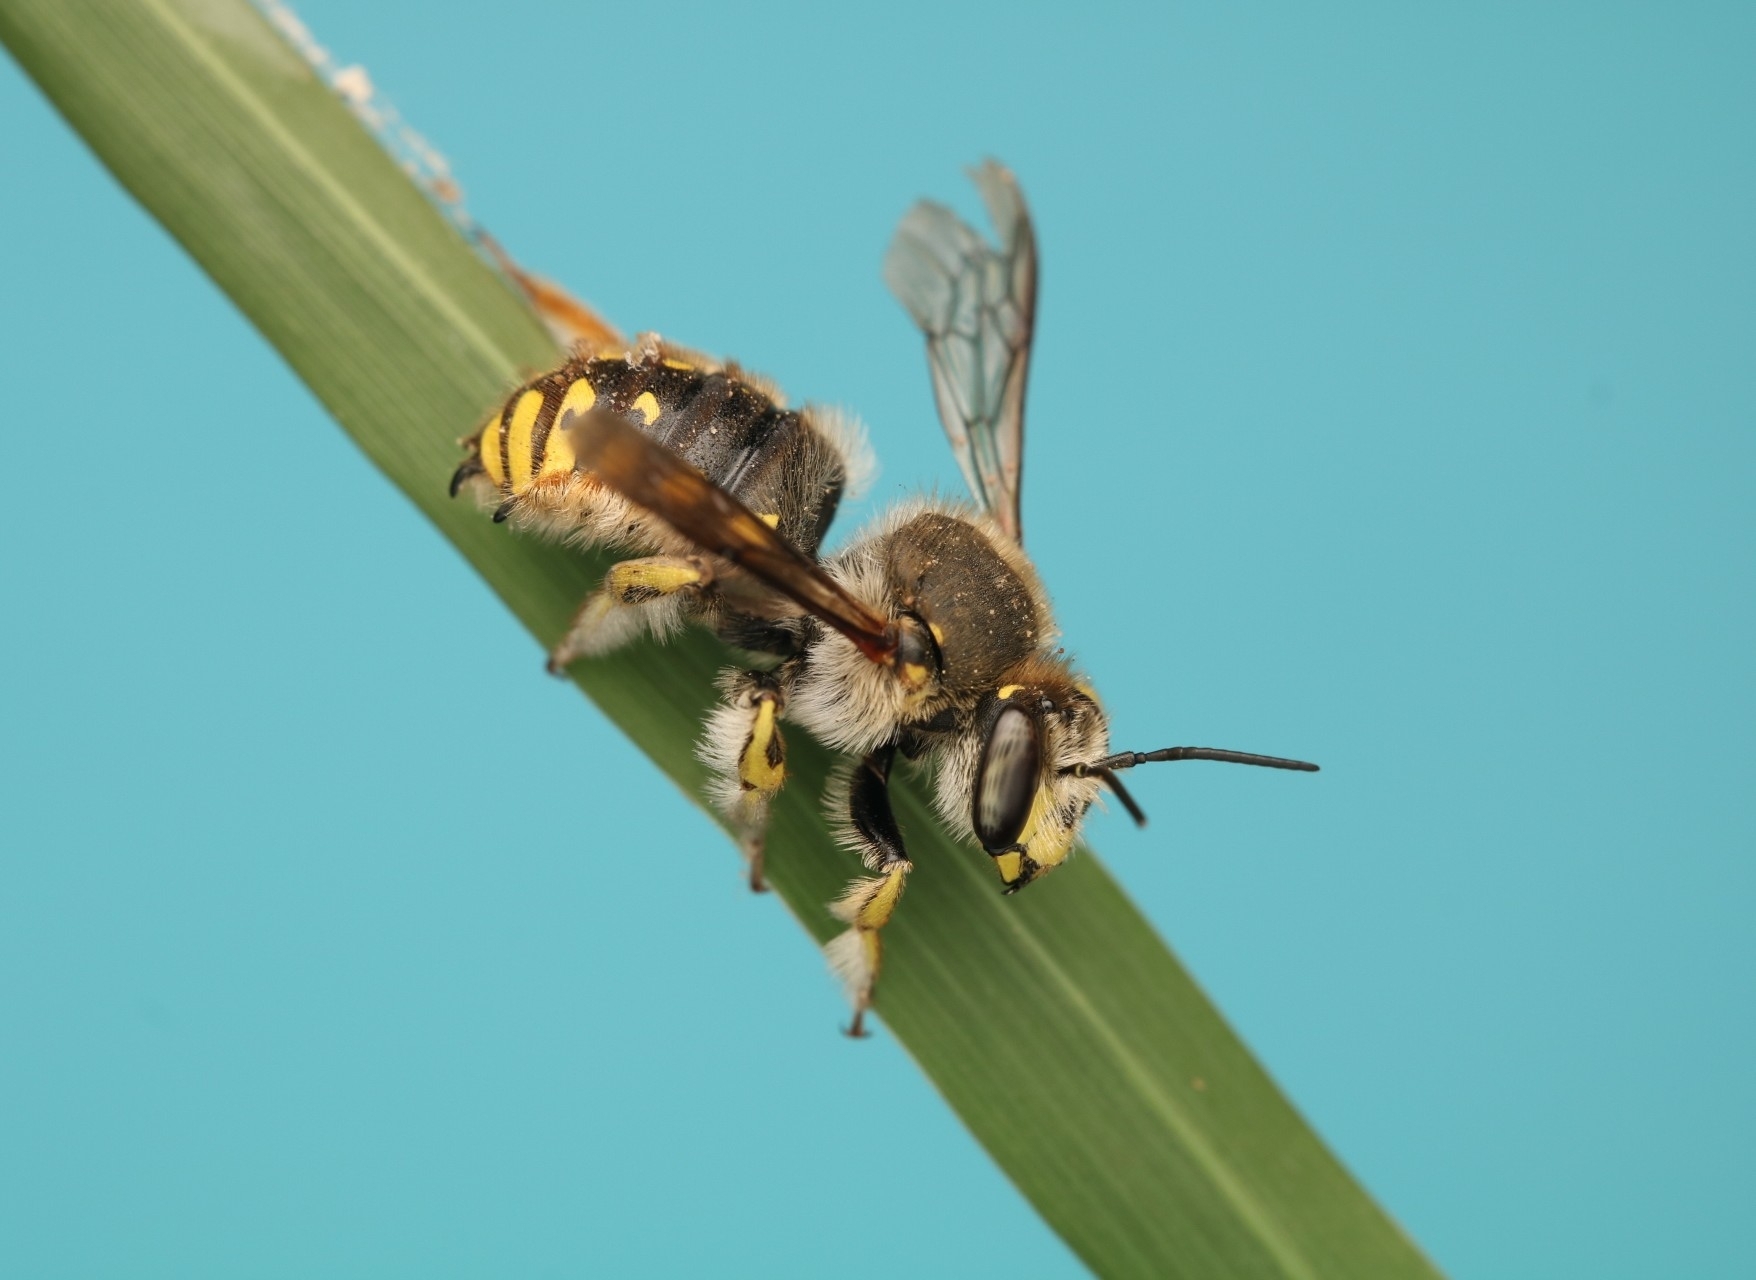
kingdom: Animalia
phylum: Arthropoda
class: Insecta
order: Hymenoptera
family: Megachilidae
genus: Anthidium
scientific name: Anthidium manicatum
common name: Wool carder bee
